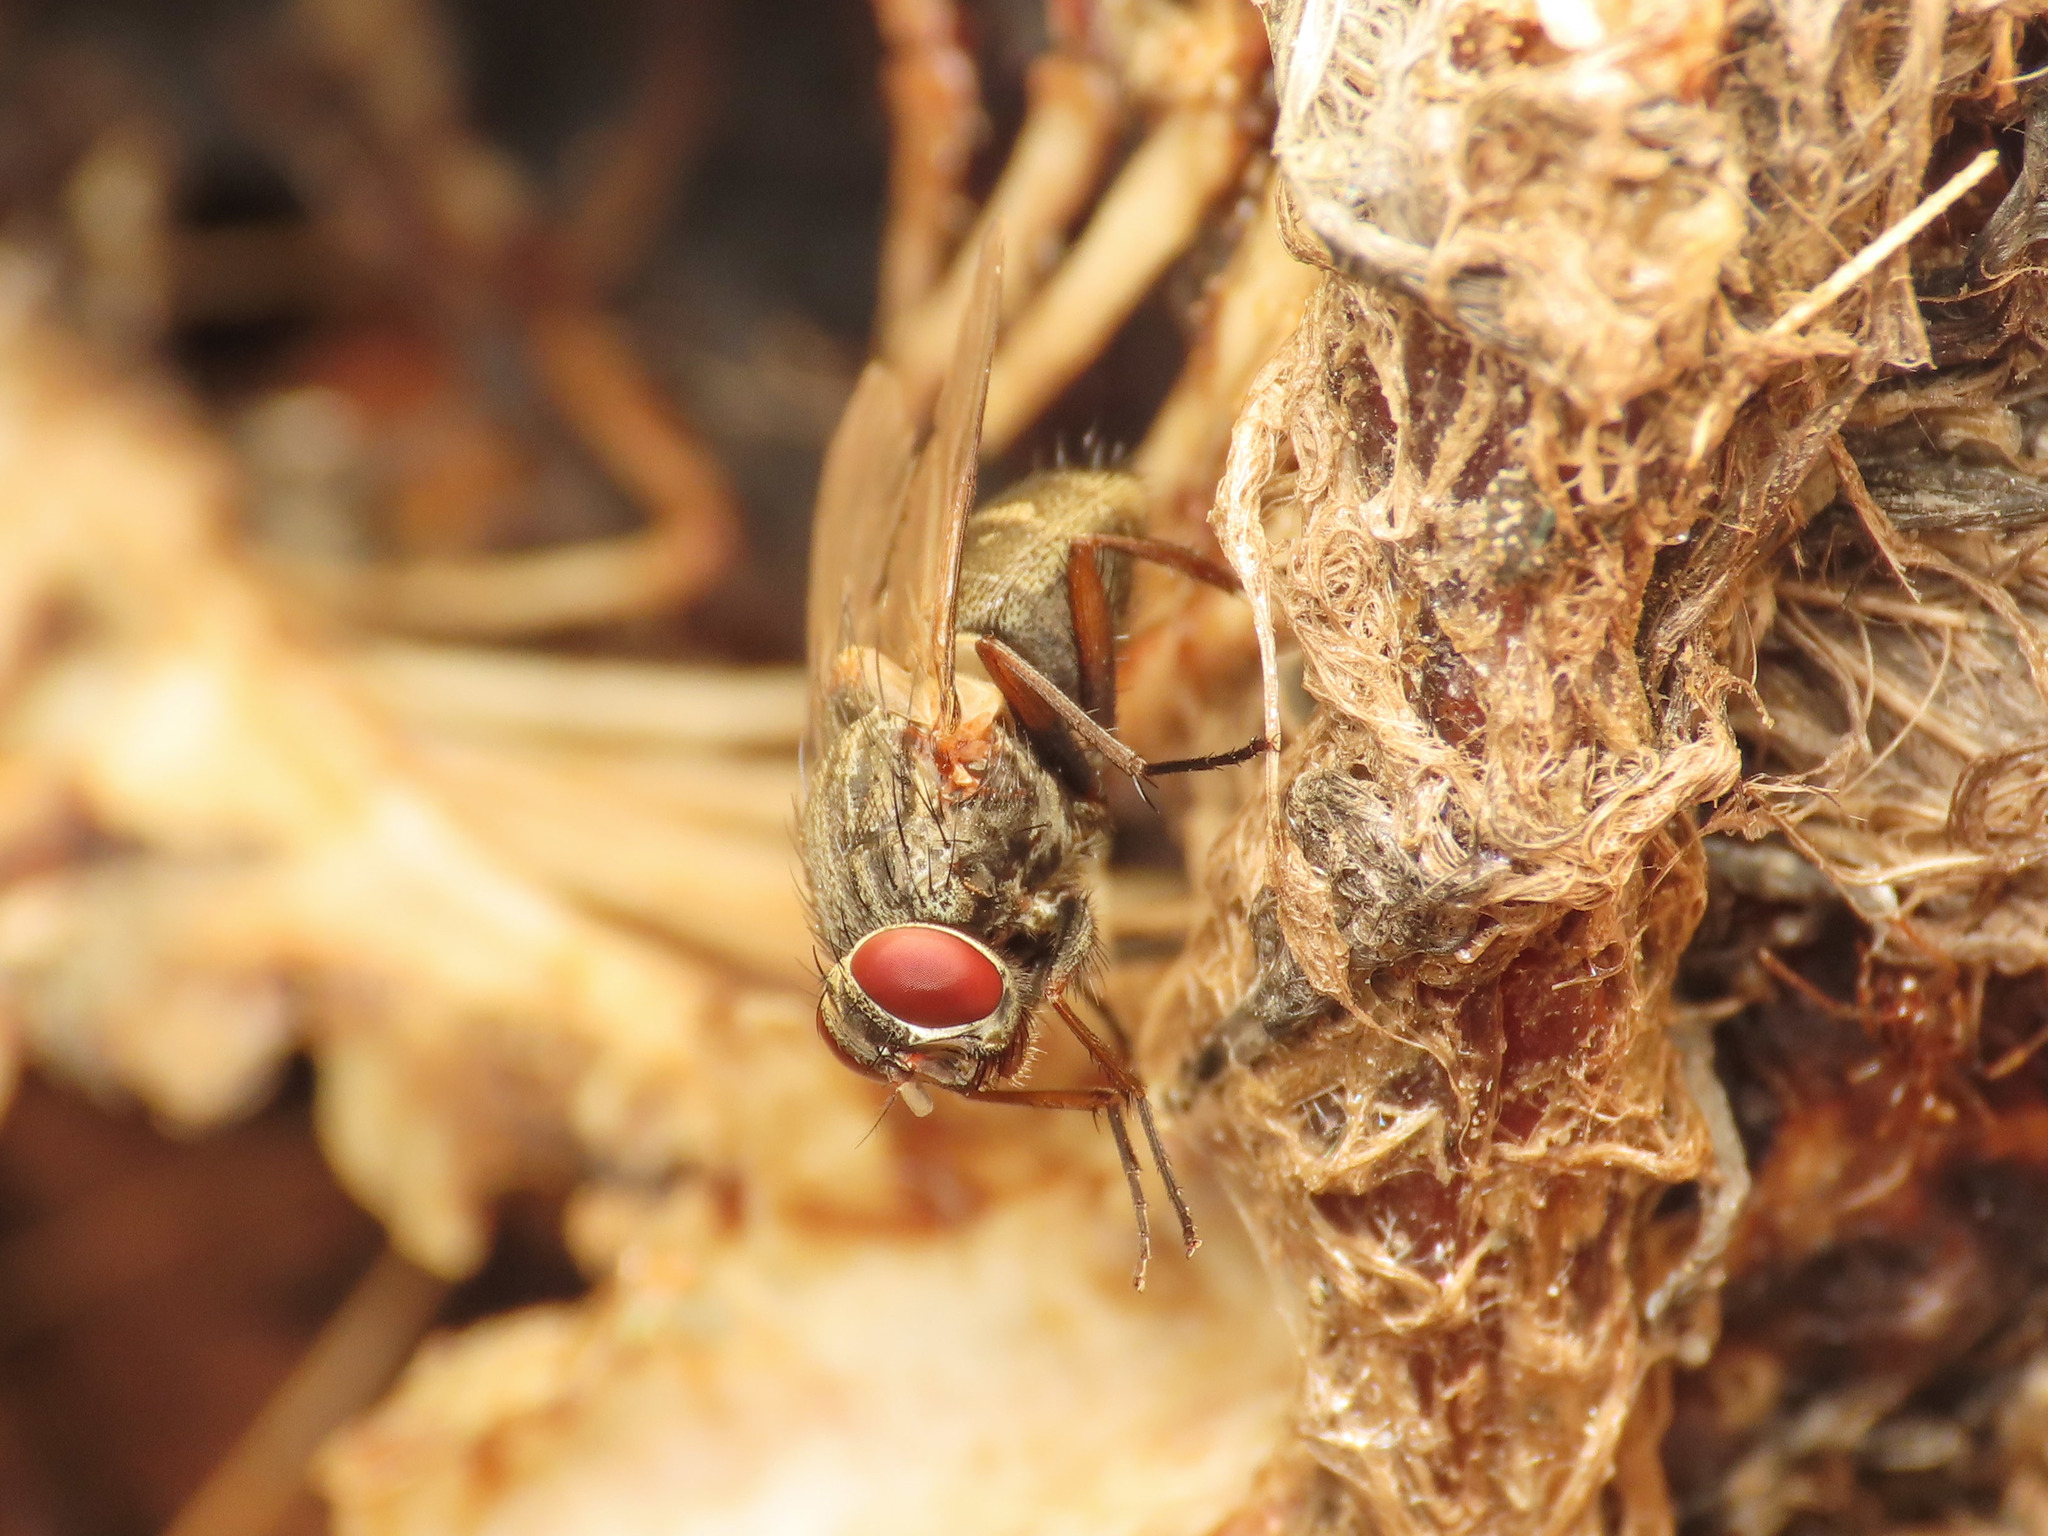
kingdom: Animalia
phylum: Arthropoda
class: Insecta
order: Diptera
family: Muscidae
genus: Muscina
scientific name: Muscina stabulans
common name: False stable fly
